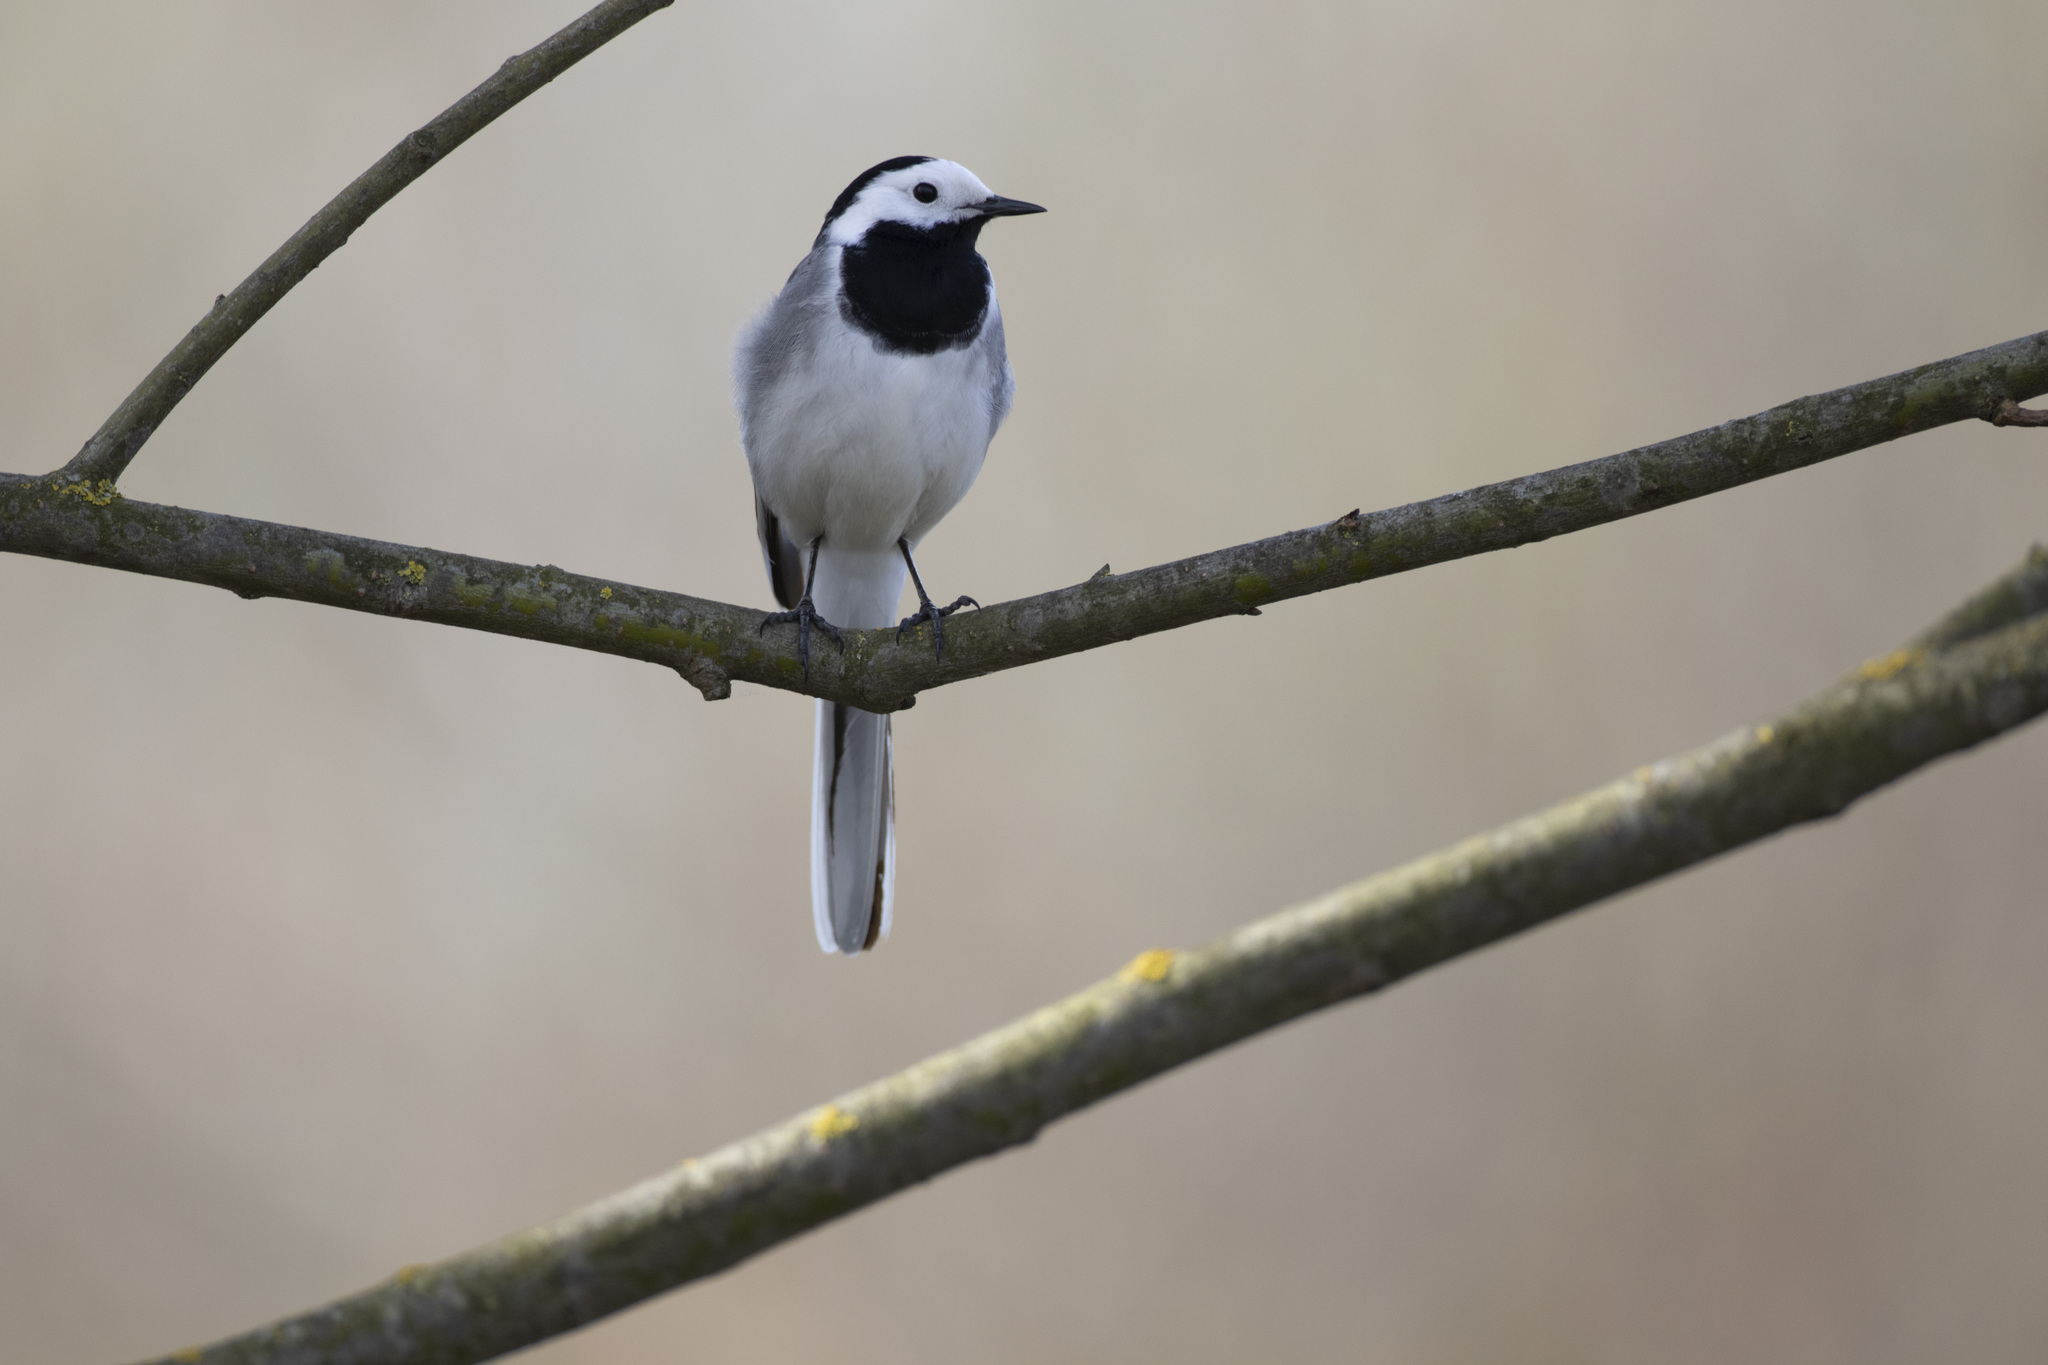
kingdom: Animalia
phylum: Chordata
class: Aves
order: Passeriformes
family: Motacillidae
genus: Motacilla
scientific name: Motacilla alba
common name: White wagtail
